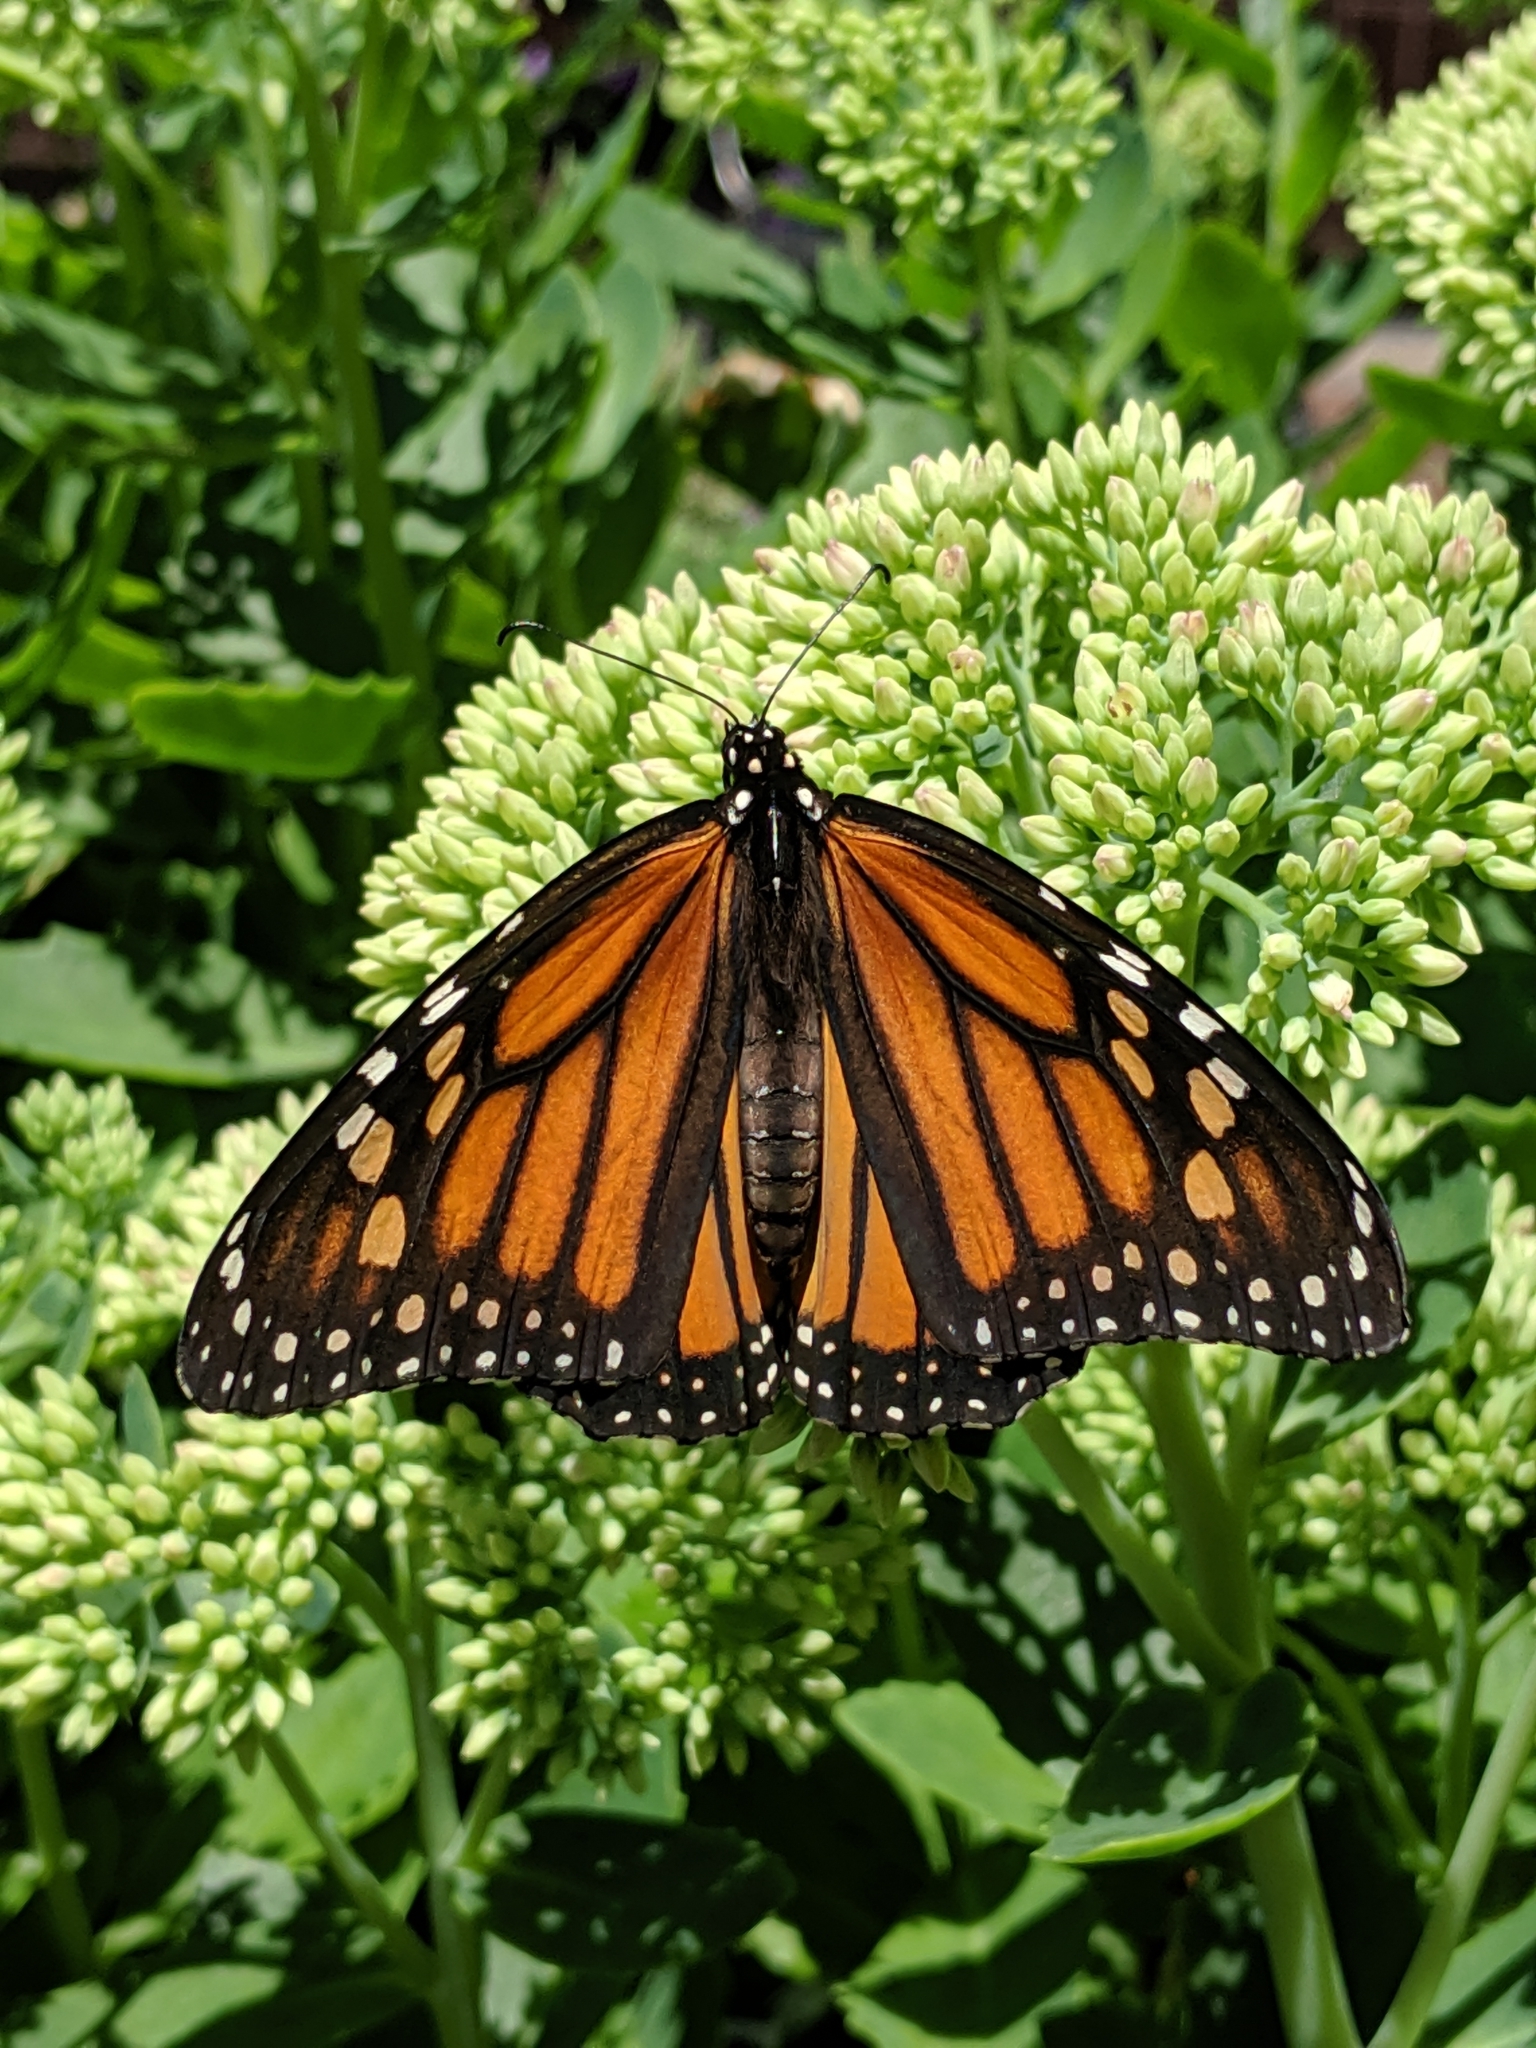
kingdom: Animalia
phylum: Arthropoda
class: Insecta
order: Lepidoptera
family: Nymphalidae
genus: Danaus
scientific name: Danaus plexippus
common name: Monarch
